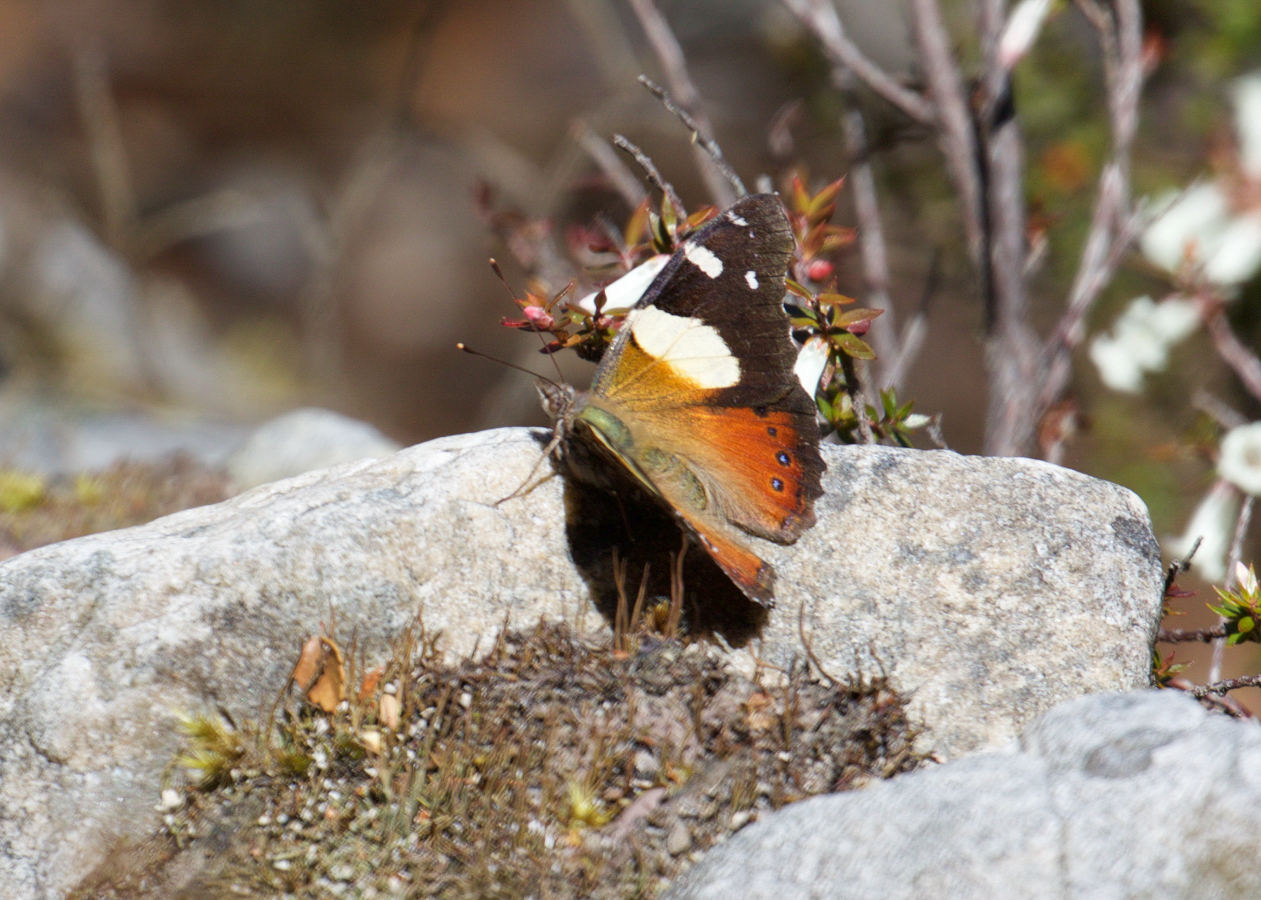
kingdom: Animalia
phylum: Arthropoda
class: Insecta
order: Lepidoptera
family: Nymphalidae
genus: Vanessa
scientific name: Vanessa itea
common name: Yellow admiral
